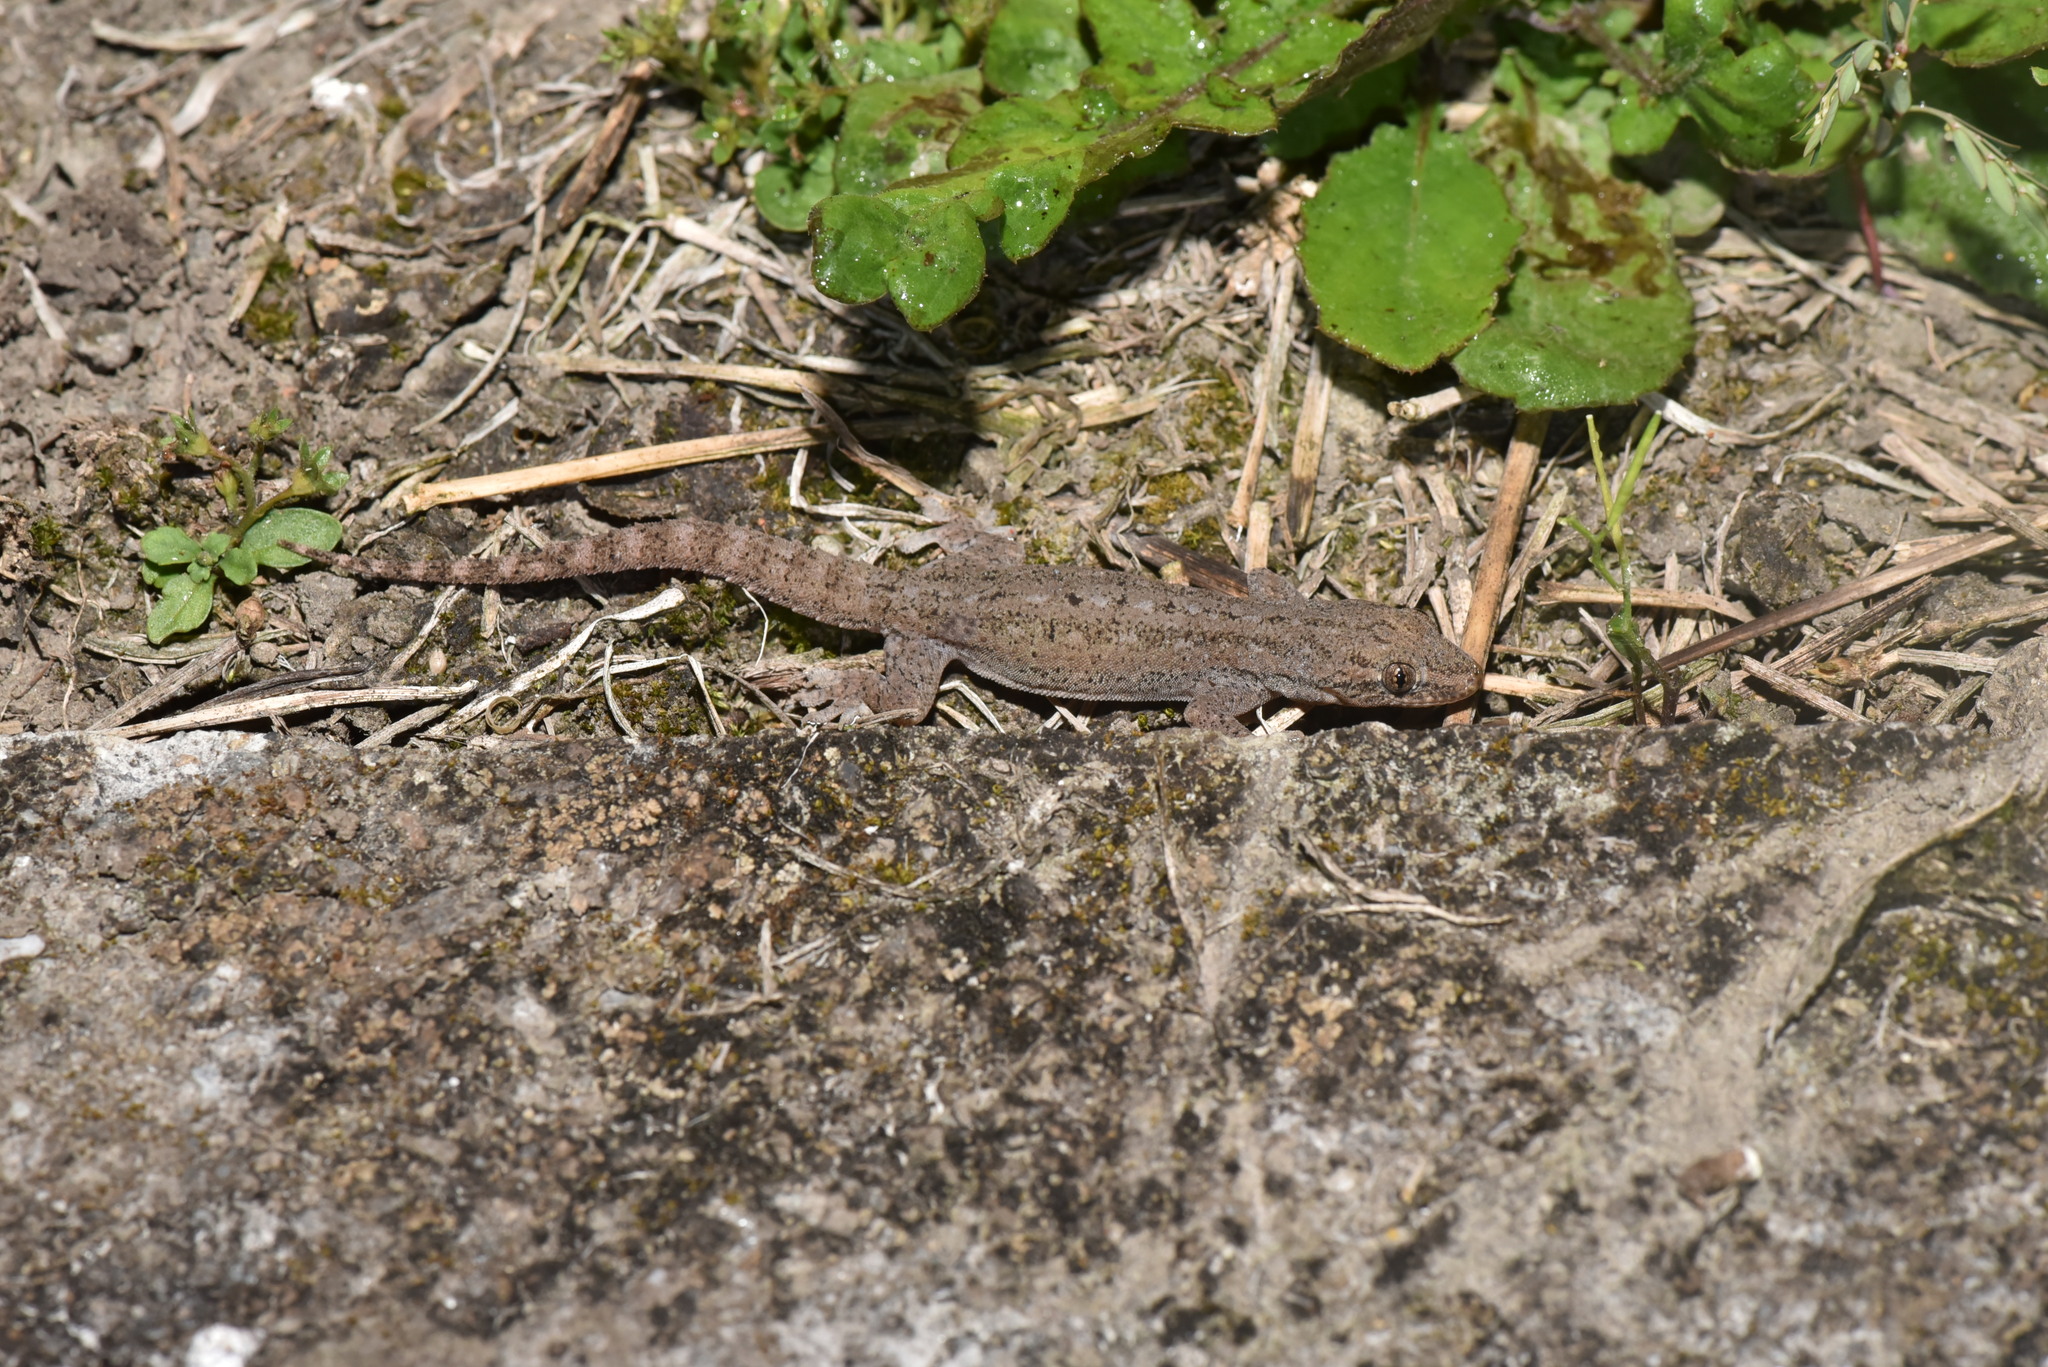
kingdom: Animalia
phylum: Chordata
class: Squamata
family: Gekkonidae
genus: Hemidactylus
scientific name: Hemidactylus frenatus
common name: Common house gecko
